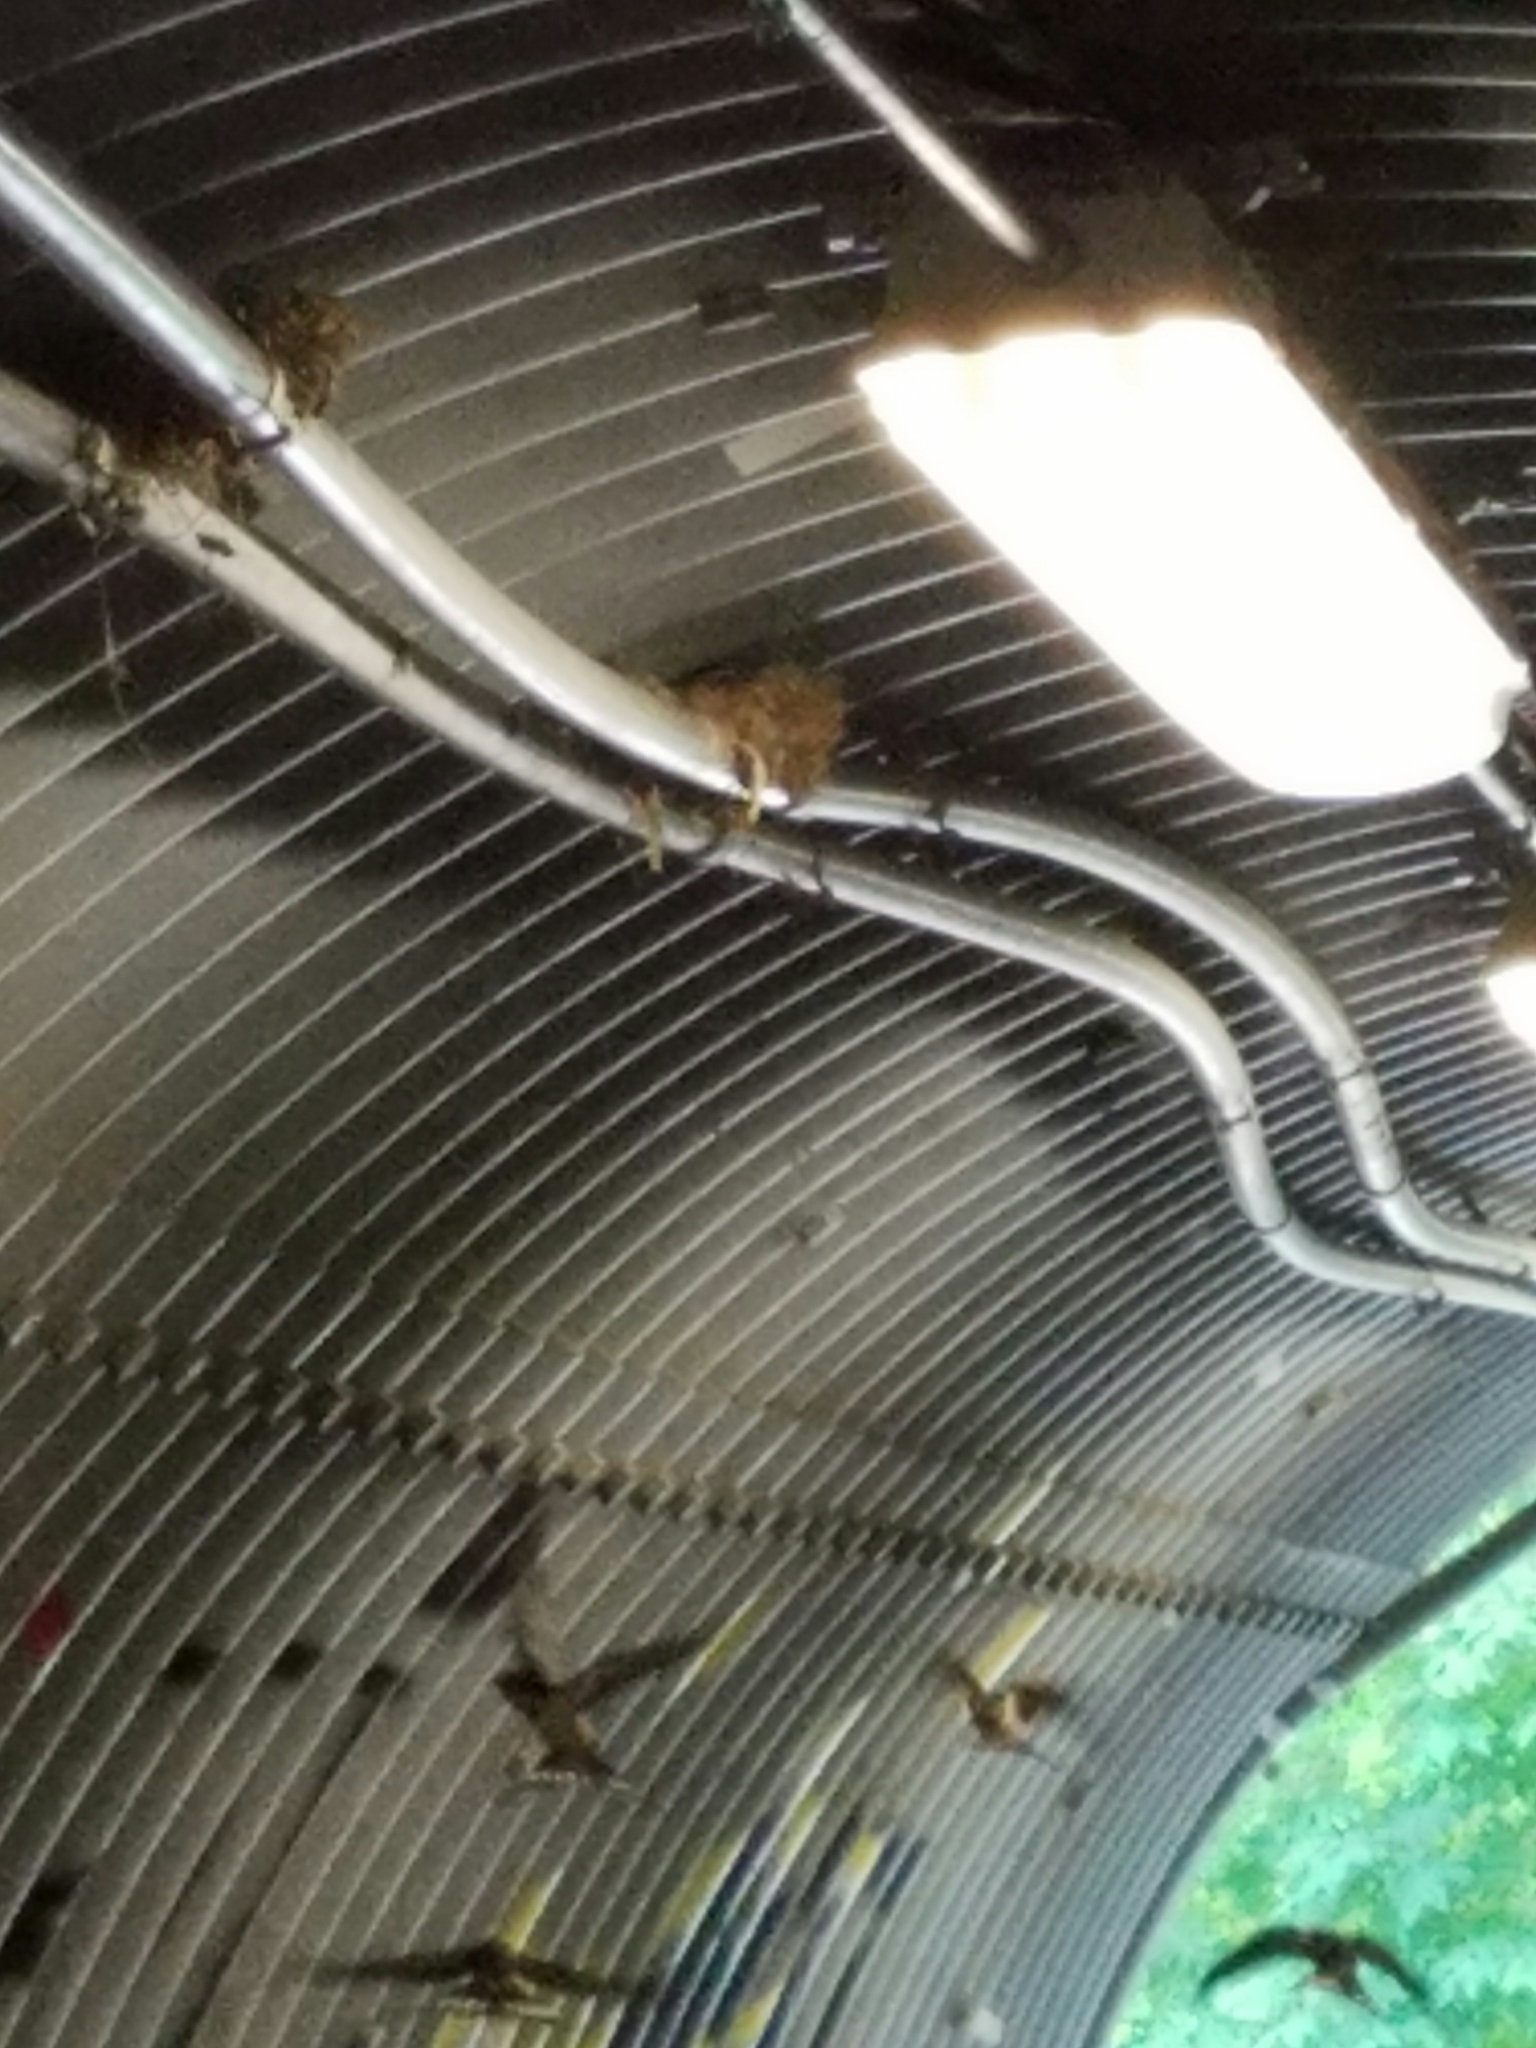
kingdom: Animalia
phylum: Chordata
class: Aves
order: Passeriformes
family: Hirundinidae
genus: Hirundo
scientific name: Hirundo rustica
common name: Barn swallow
